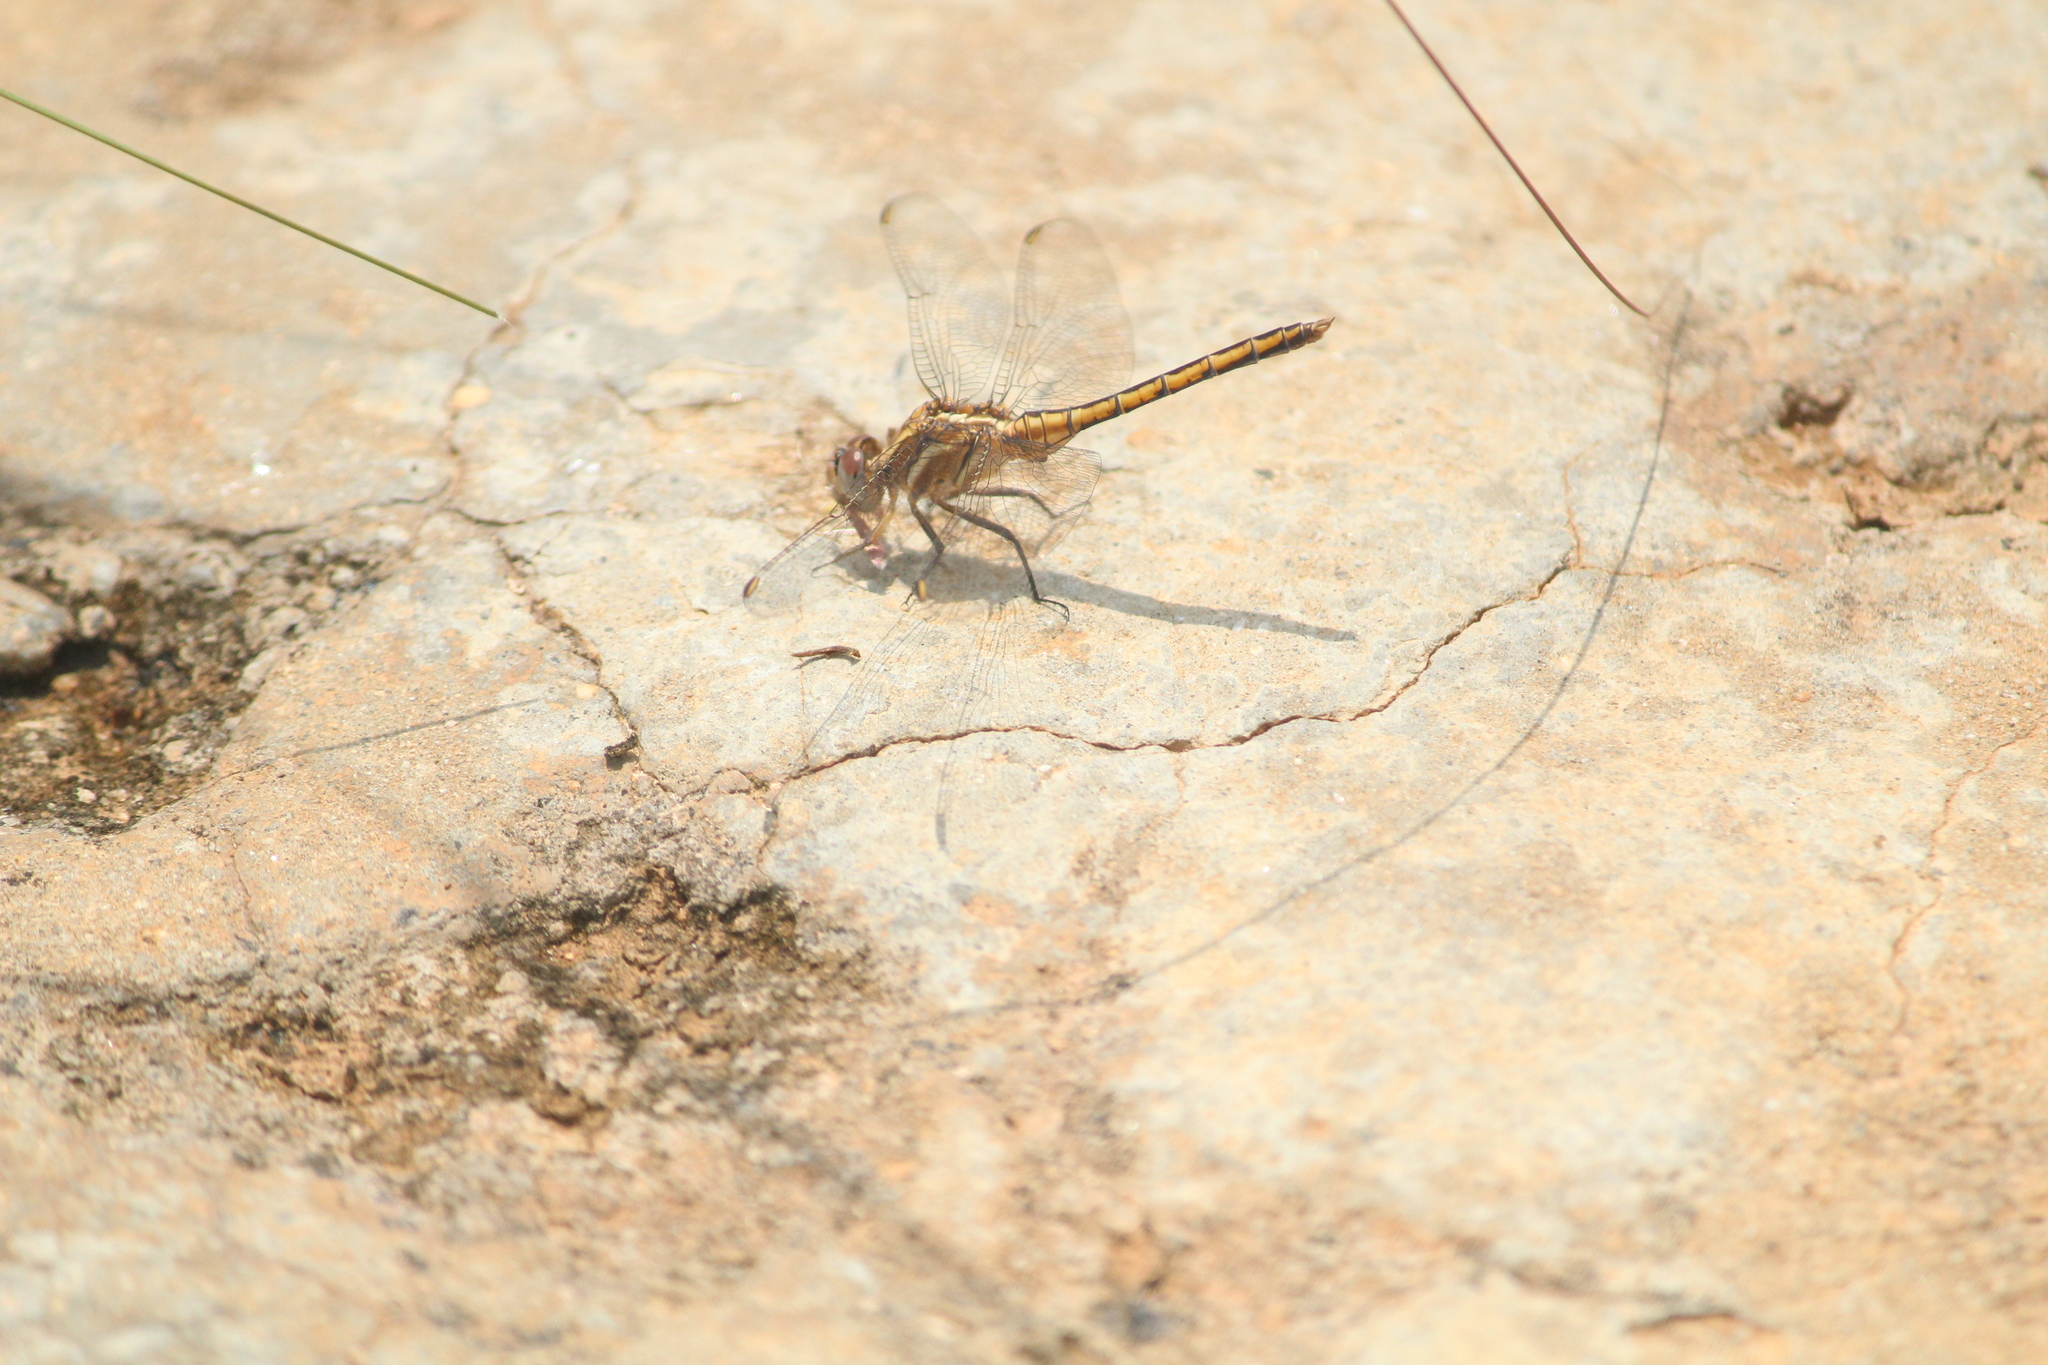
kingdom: Animalia
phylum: Arthropoda
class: Insecta
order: Odonata
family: Libellulidae
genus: Orthetrum
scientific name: Orthetrum glaucum
